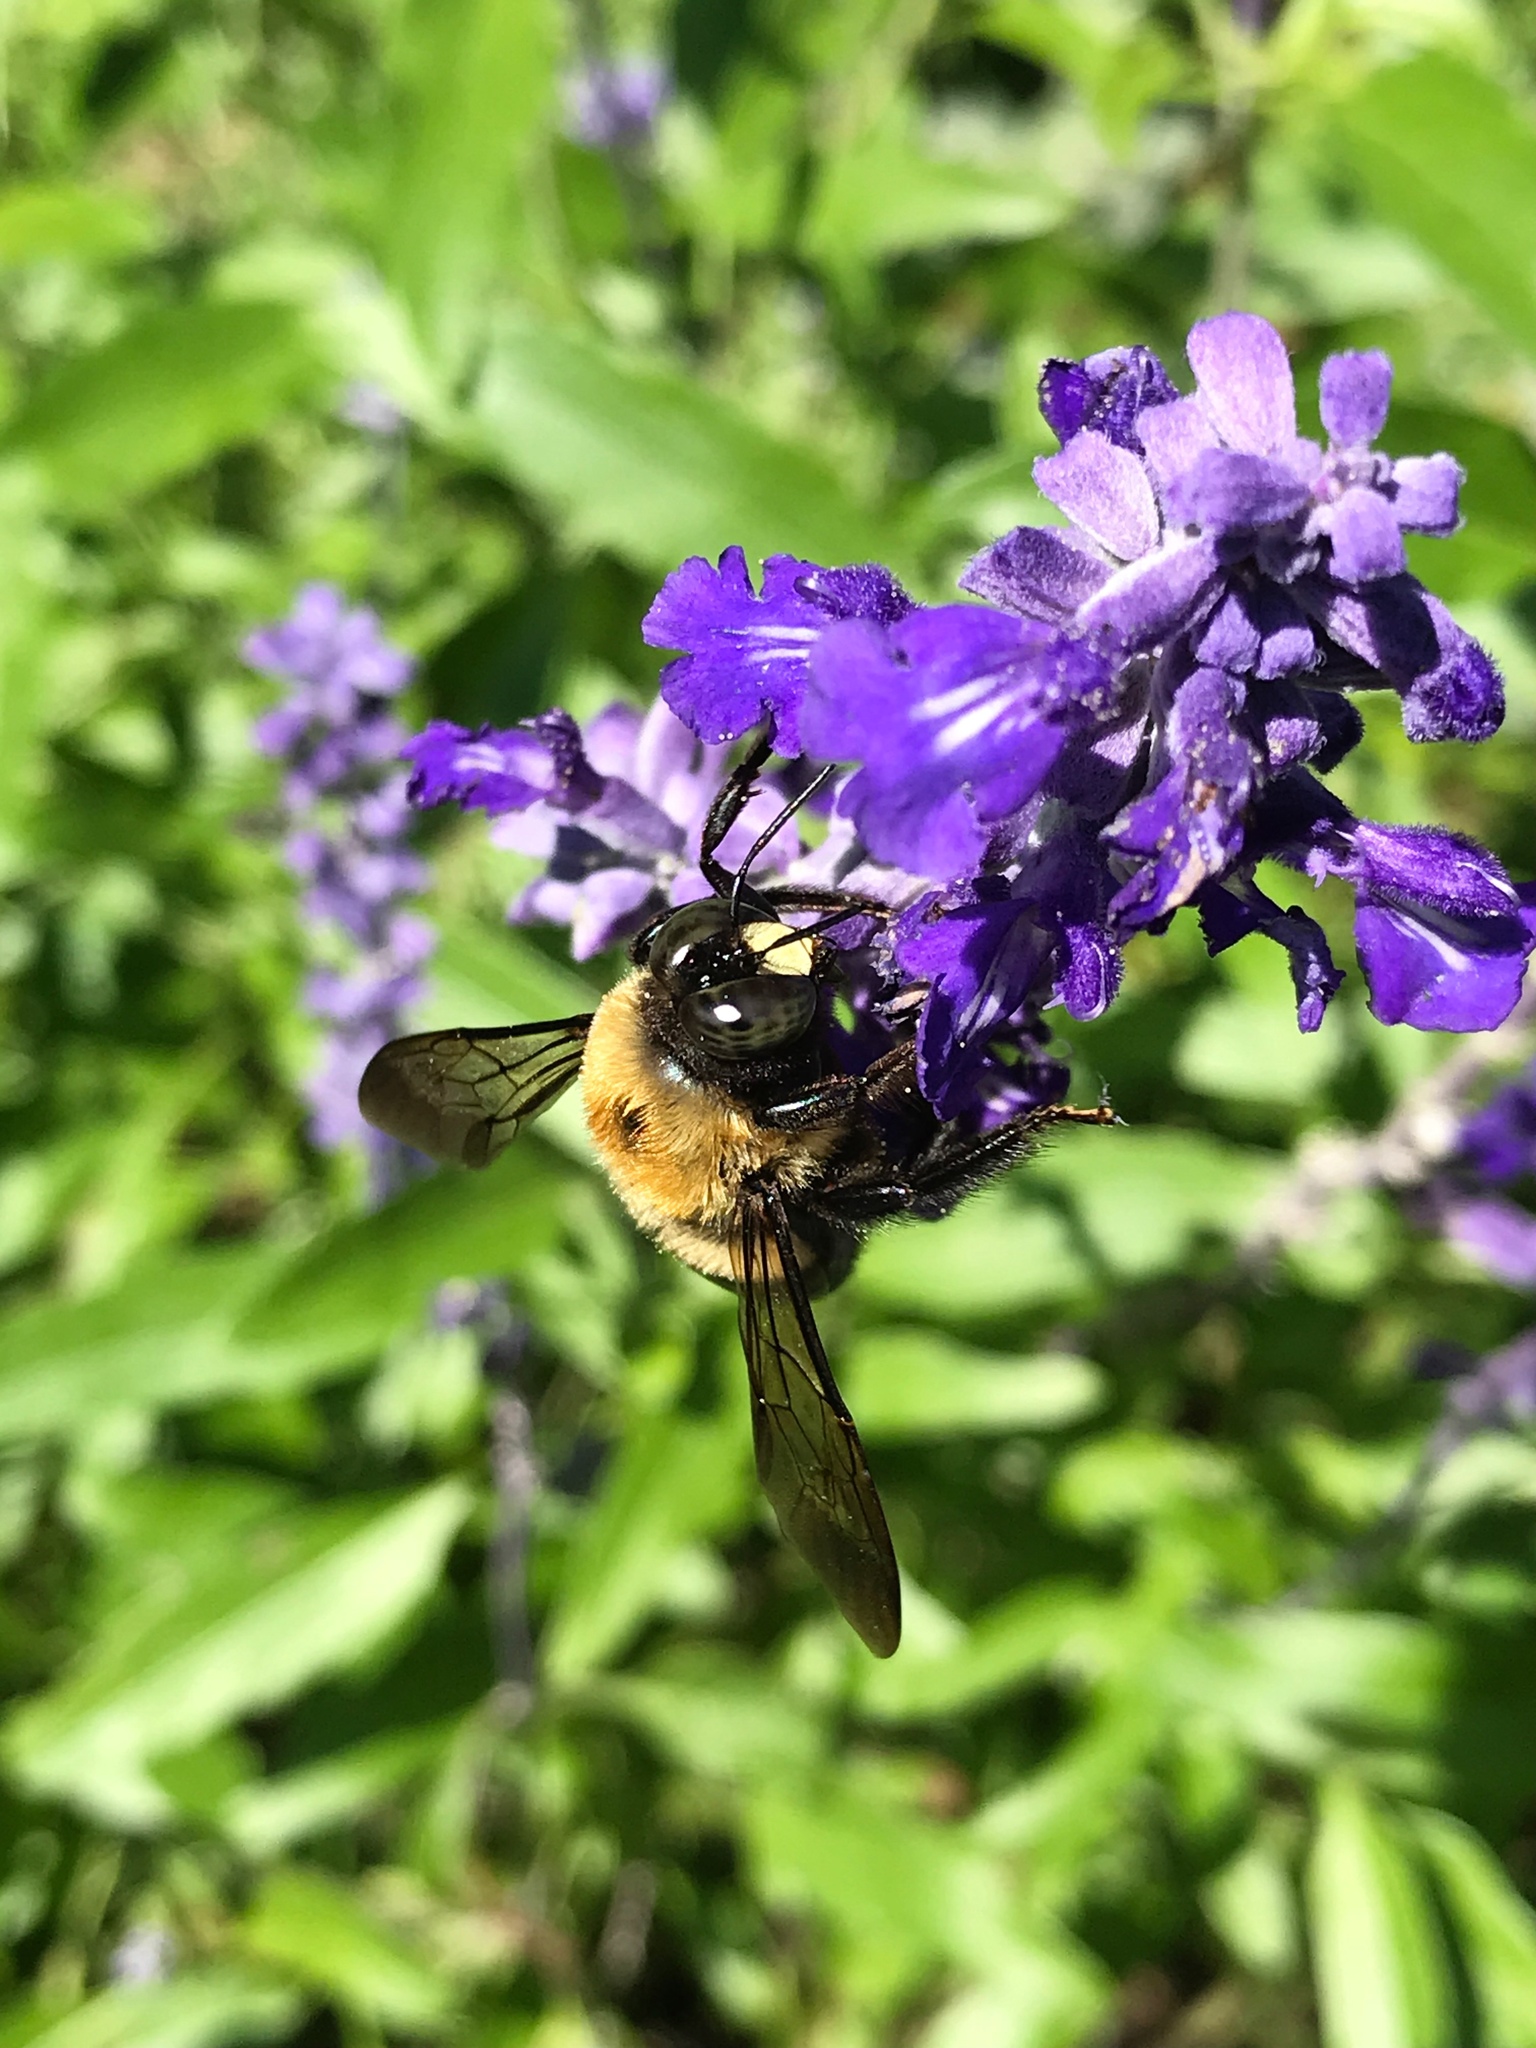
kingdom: Animalia
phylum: Arthropoda
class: Insecta
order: Hymenoptera
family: Apidae
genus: Xylocopa
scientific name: Xylocopa virginica
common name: Carpenter bee
